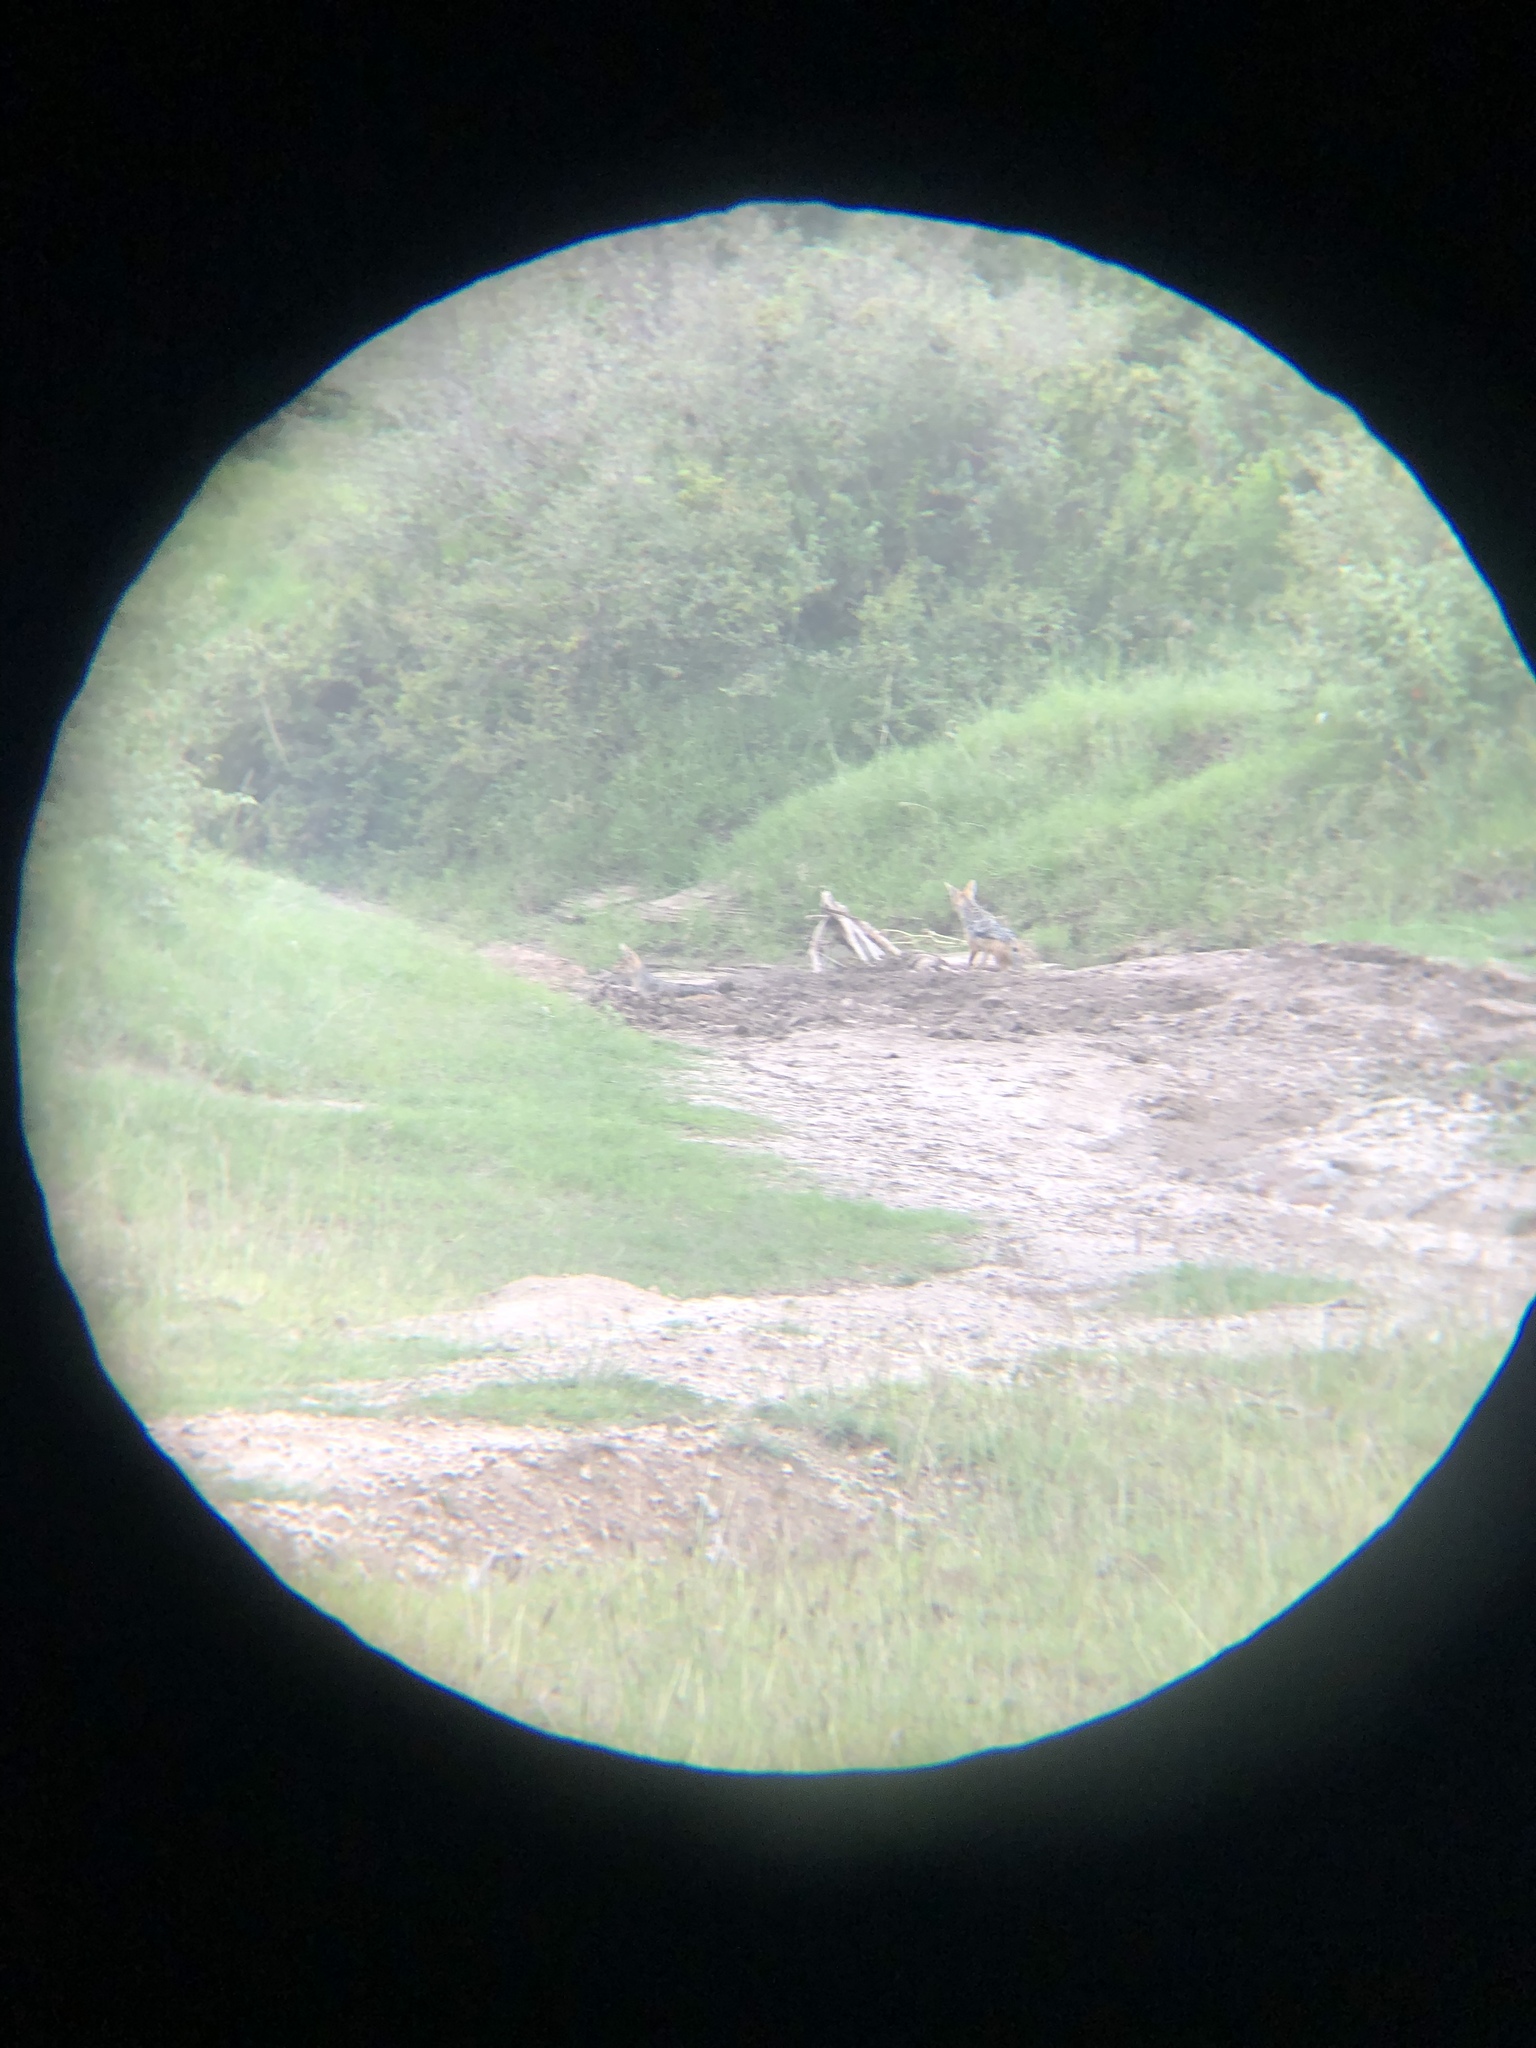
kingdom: Animalia
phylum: Chordata
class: Mammalia
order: Carnivora
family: Canidae
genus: Lupulella
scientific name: Lupulella
